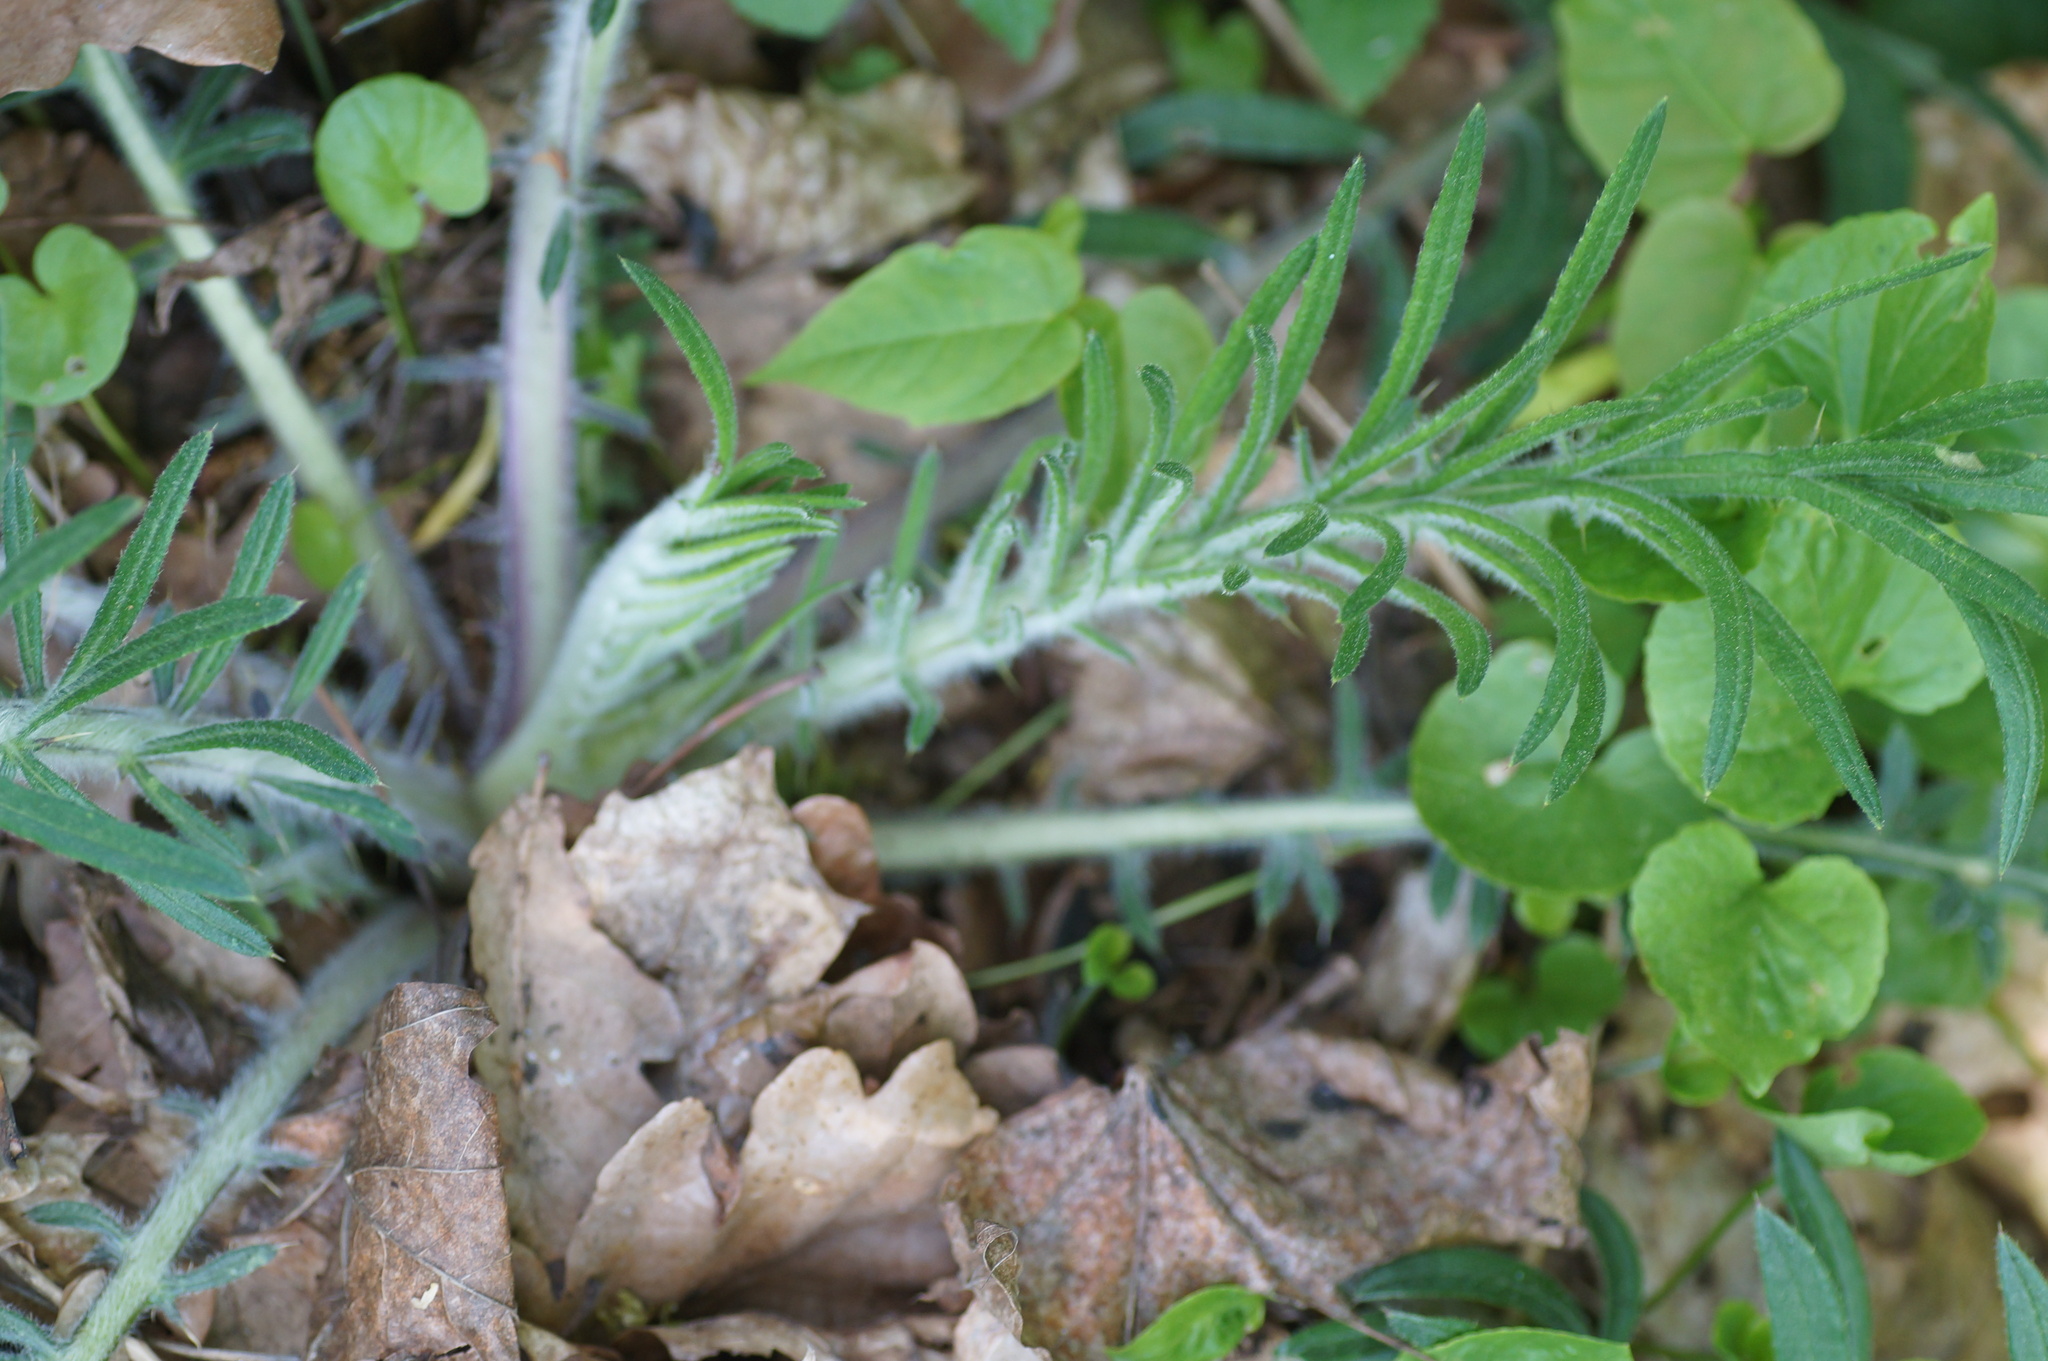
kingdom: Plantae
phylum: Tracheophyta
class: Magnoliopsida
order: Asterales
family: Asteraceae
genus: Lophiolepis
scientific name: Lophiolepis decussata
